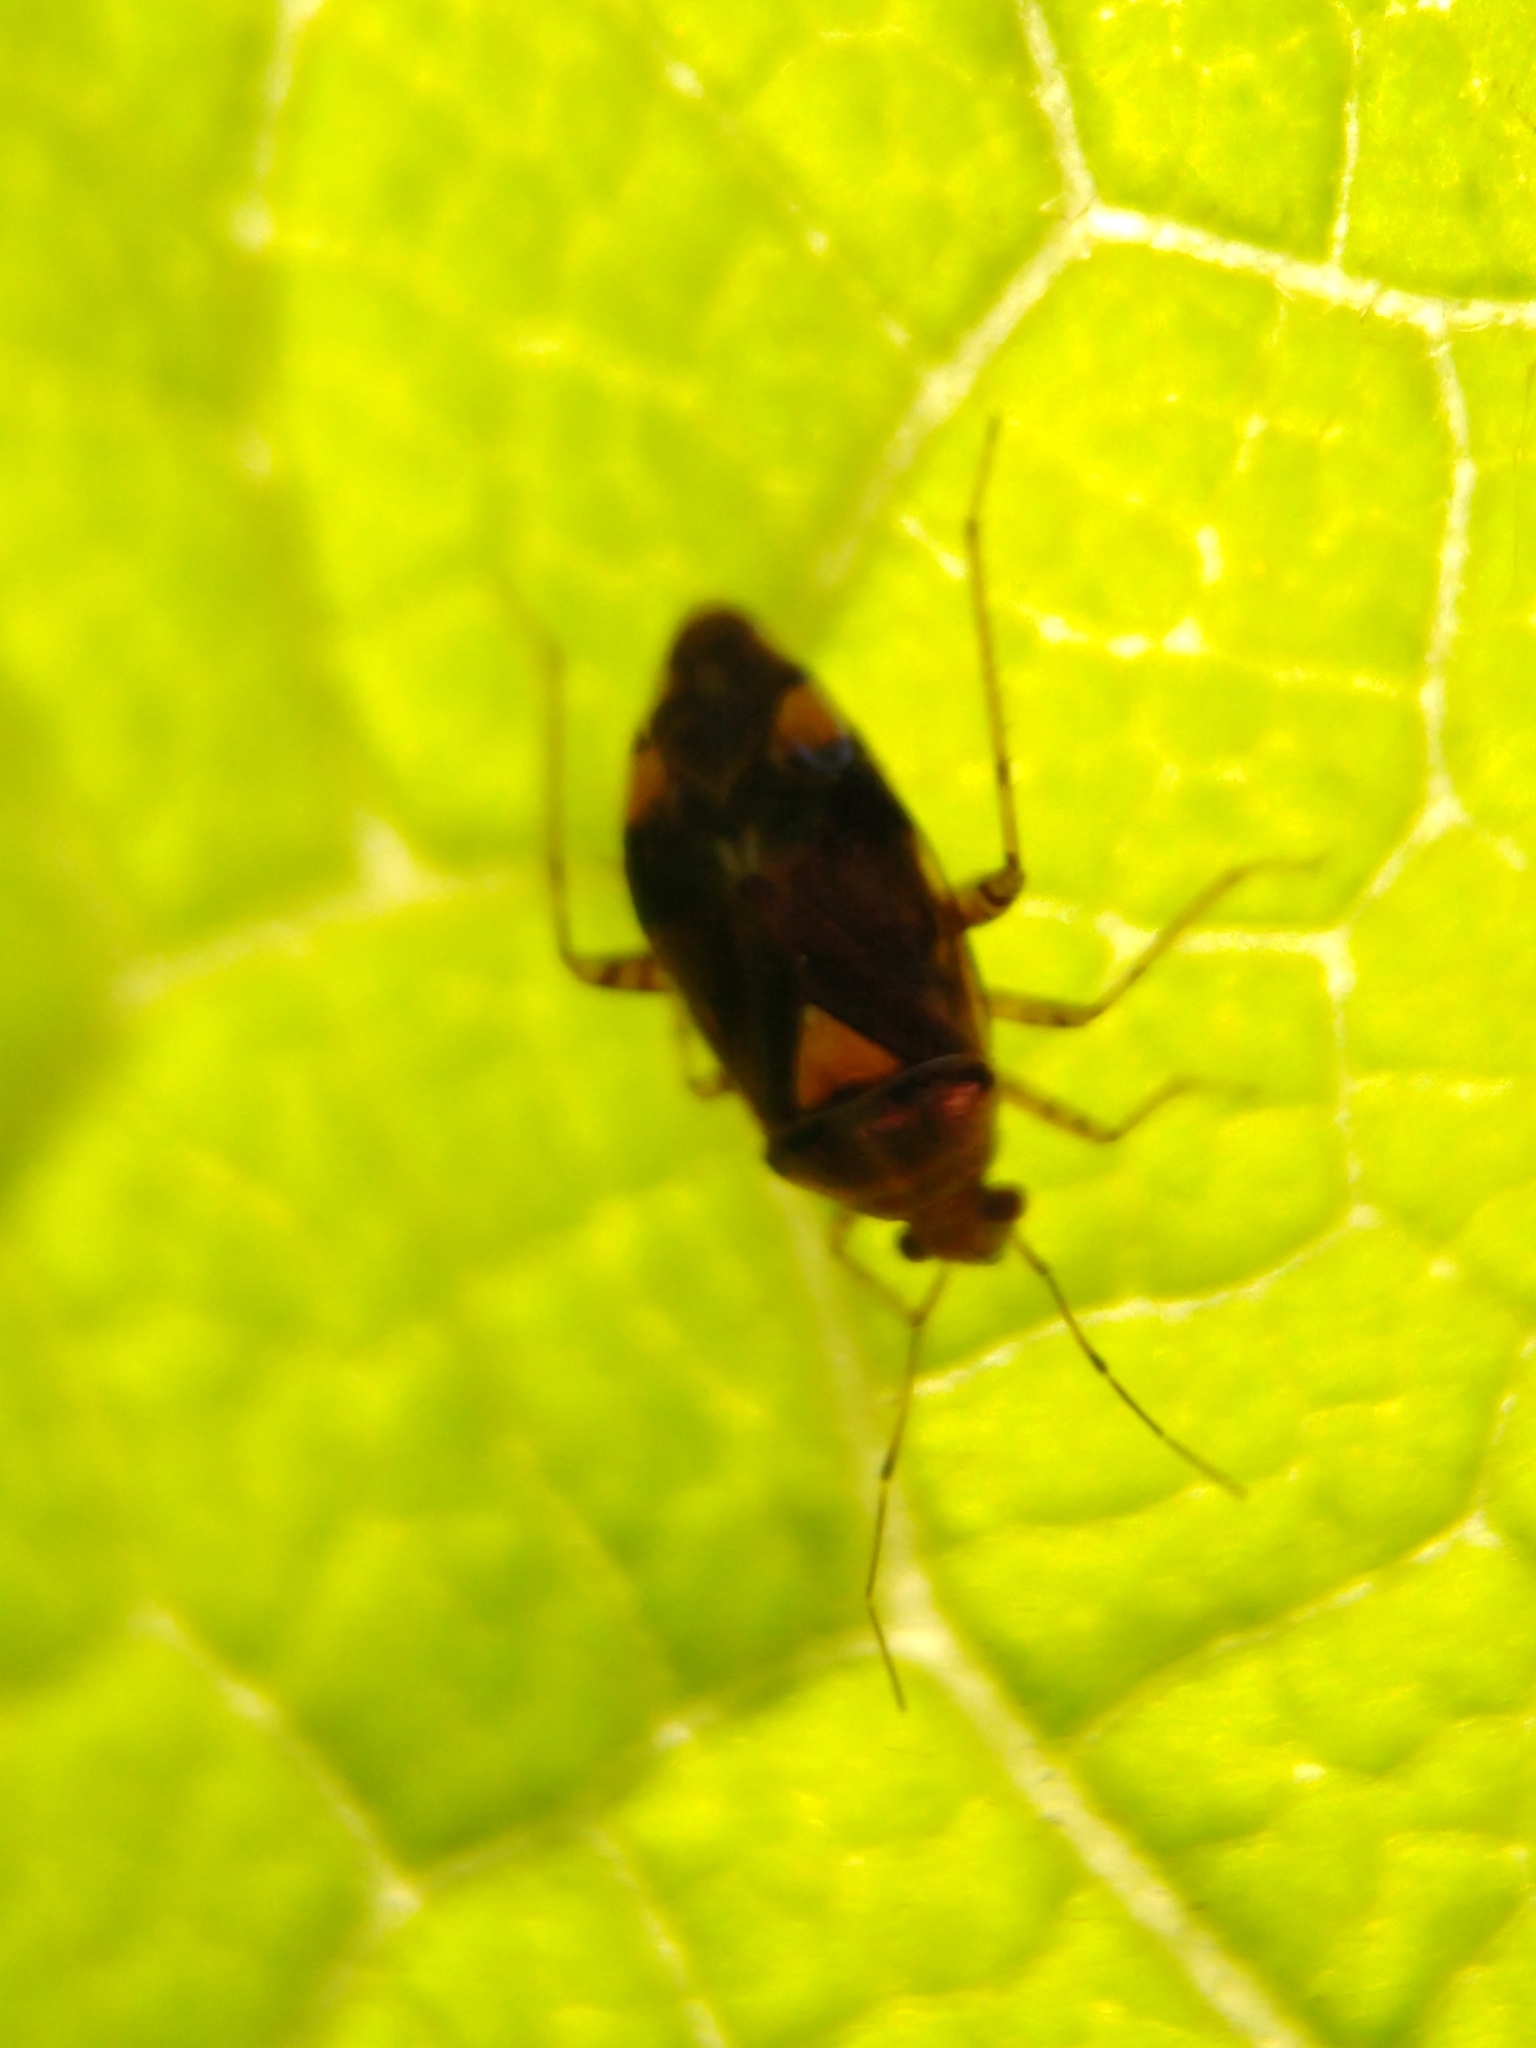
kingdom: Animalia
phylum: Arthropoda
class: Insecta
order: Hemiptera
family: Miridae
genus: Liocoris
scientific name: Liocoris tripustulatus
